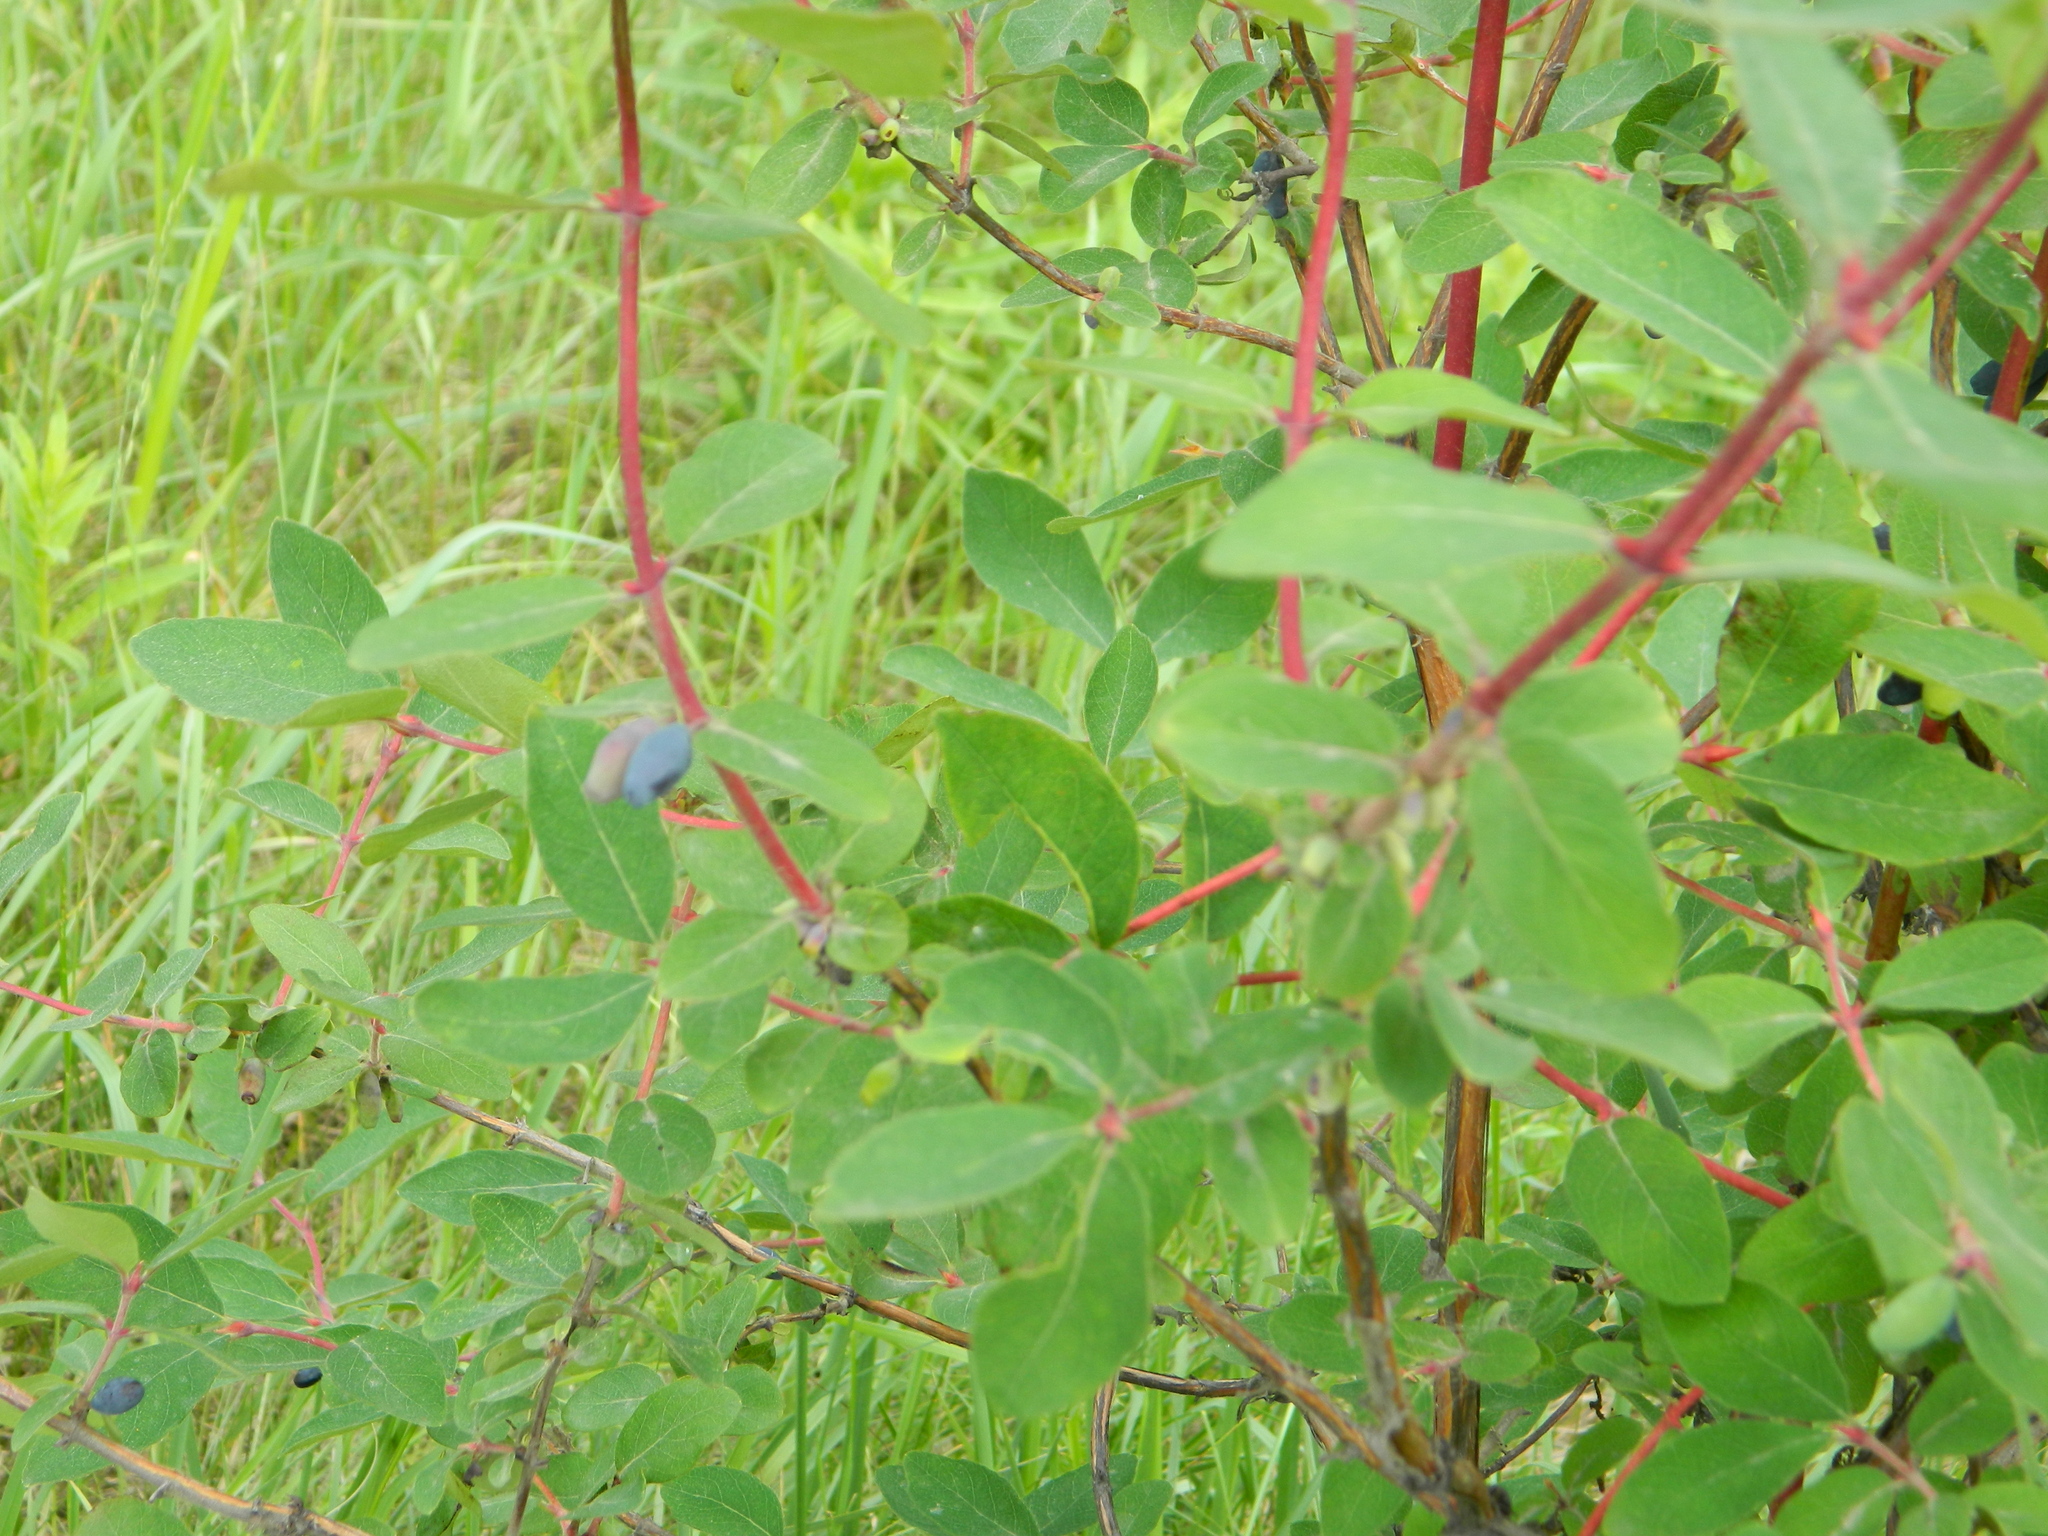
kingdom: Plantae
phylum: Tracheophyta
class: Magnoliopsida
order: Dipsacales
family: Caprifoliaceae
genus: Lonicera
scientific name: Lonicera caerulea
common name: Blue honeysuckle
